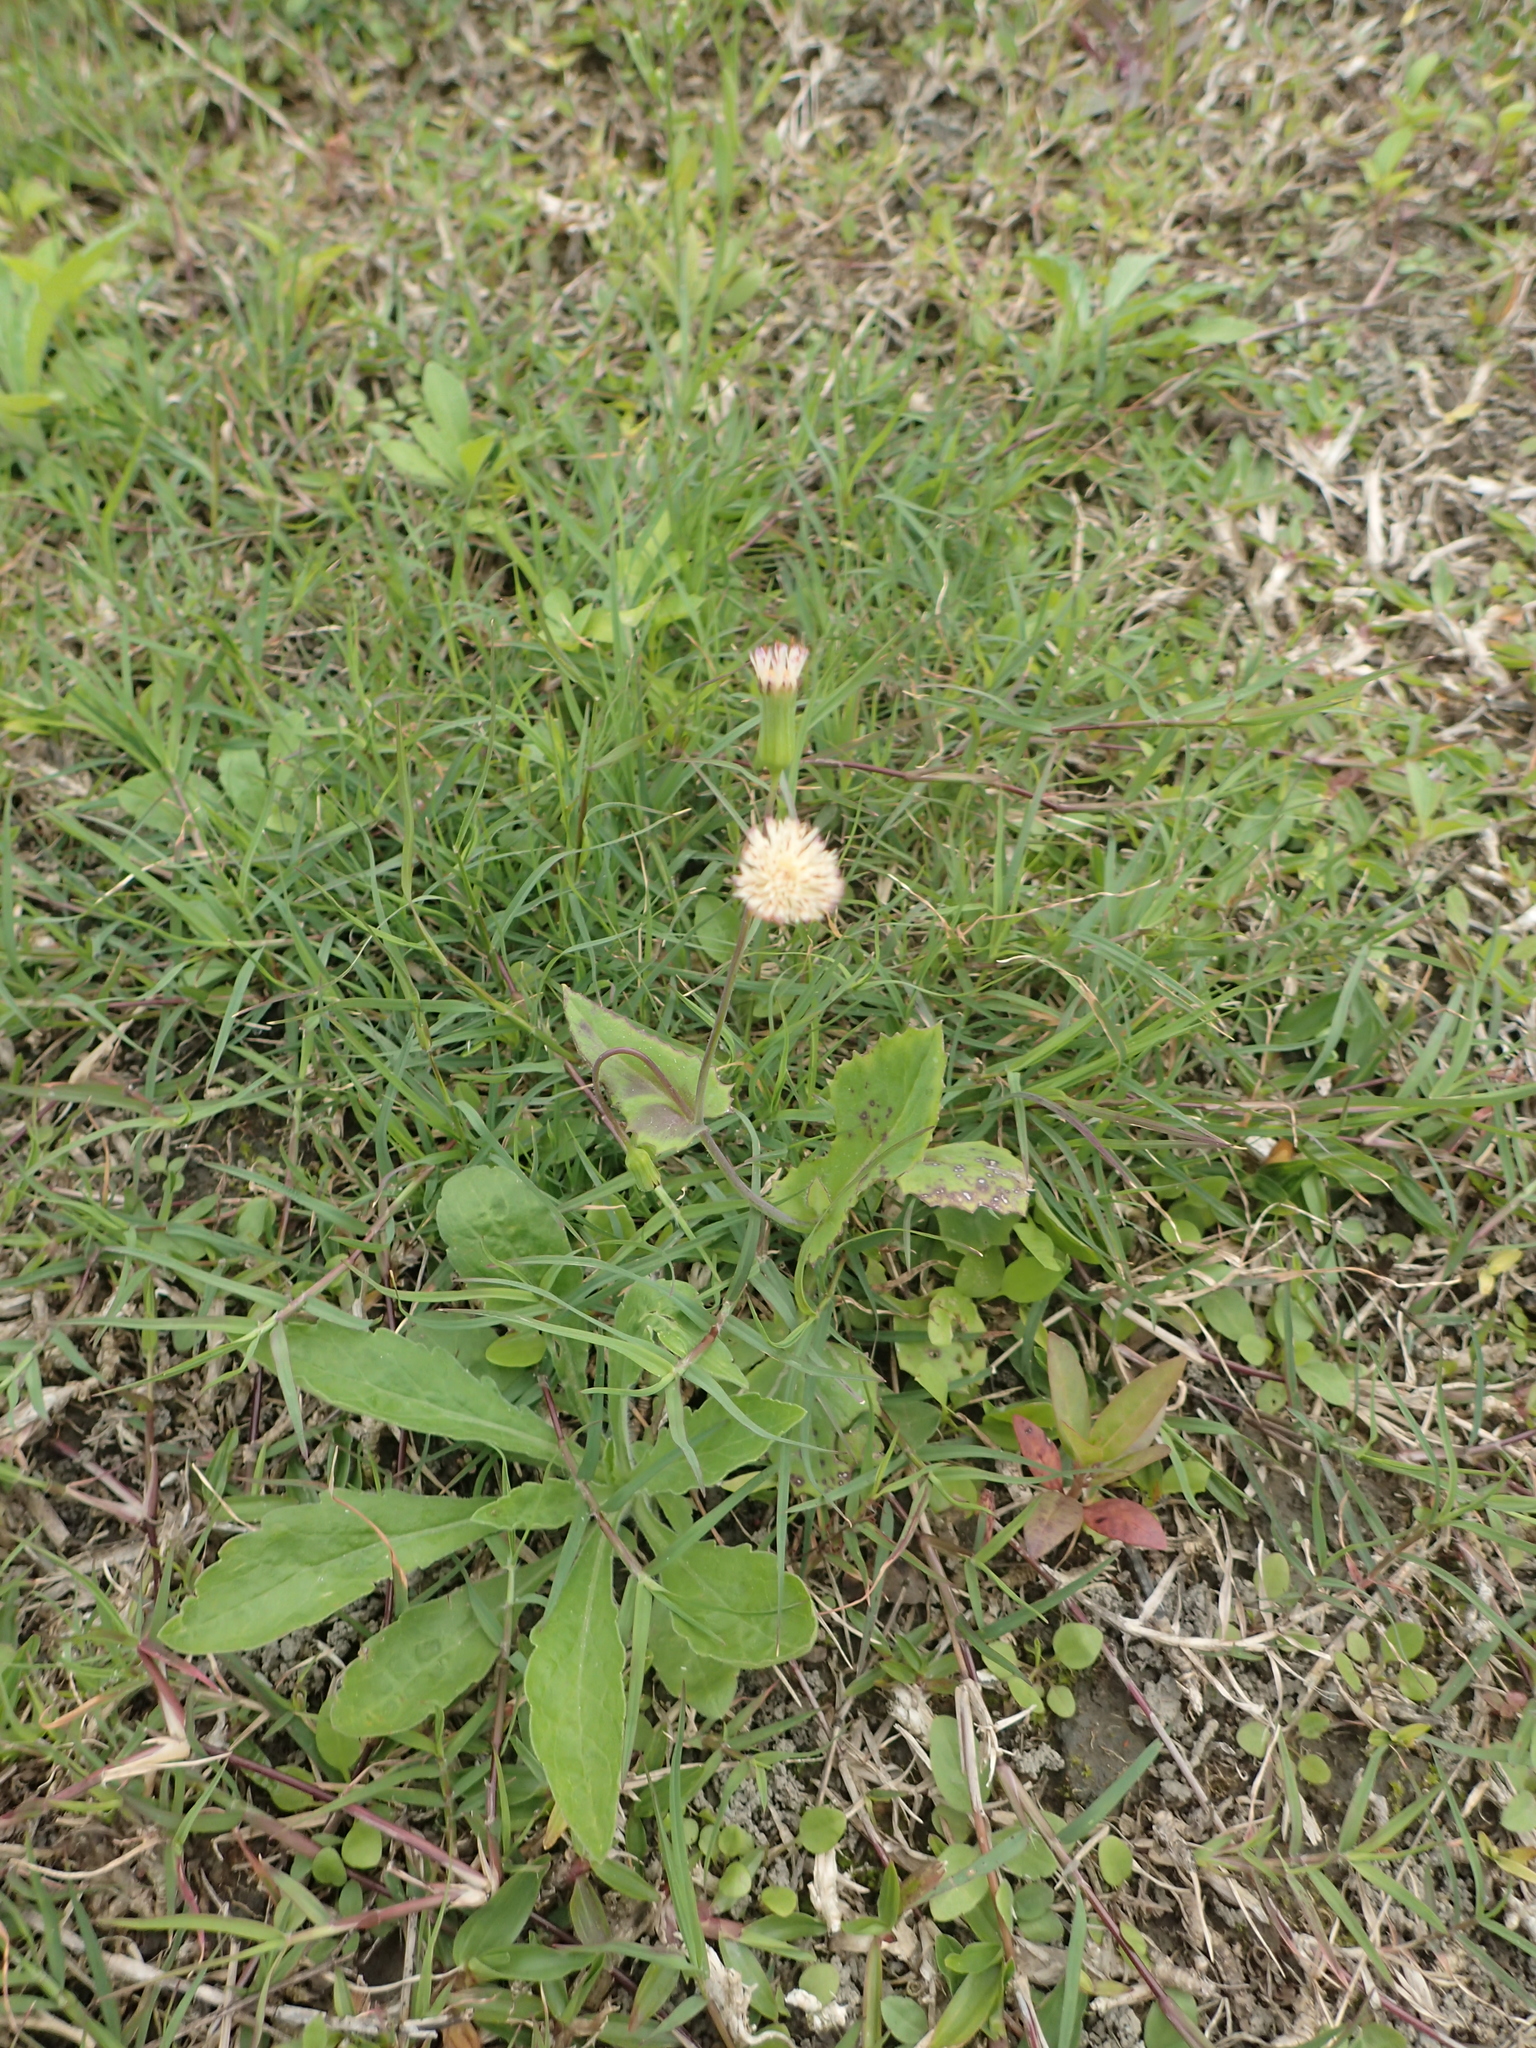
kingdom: Plantae
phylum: Tracheophyta
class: Magnoliopsida
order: Asterales
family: Asteraceae
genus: Emilia
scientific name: Emilia praetermissa
